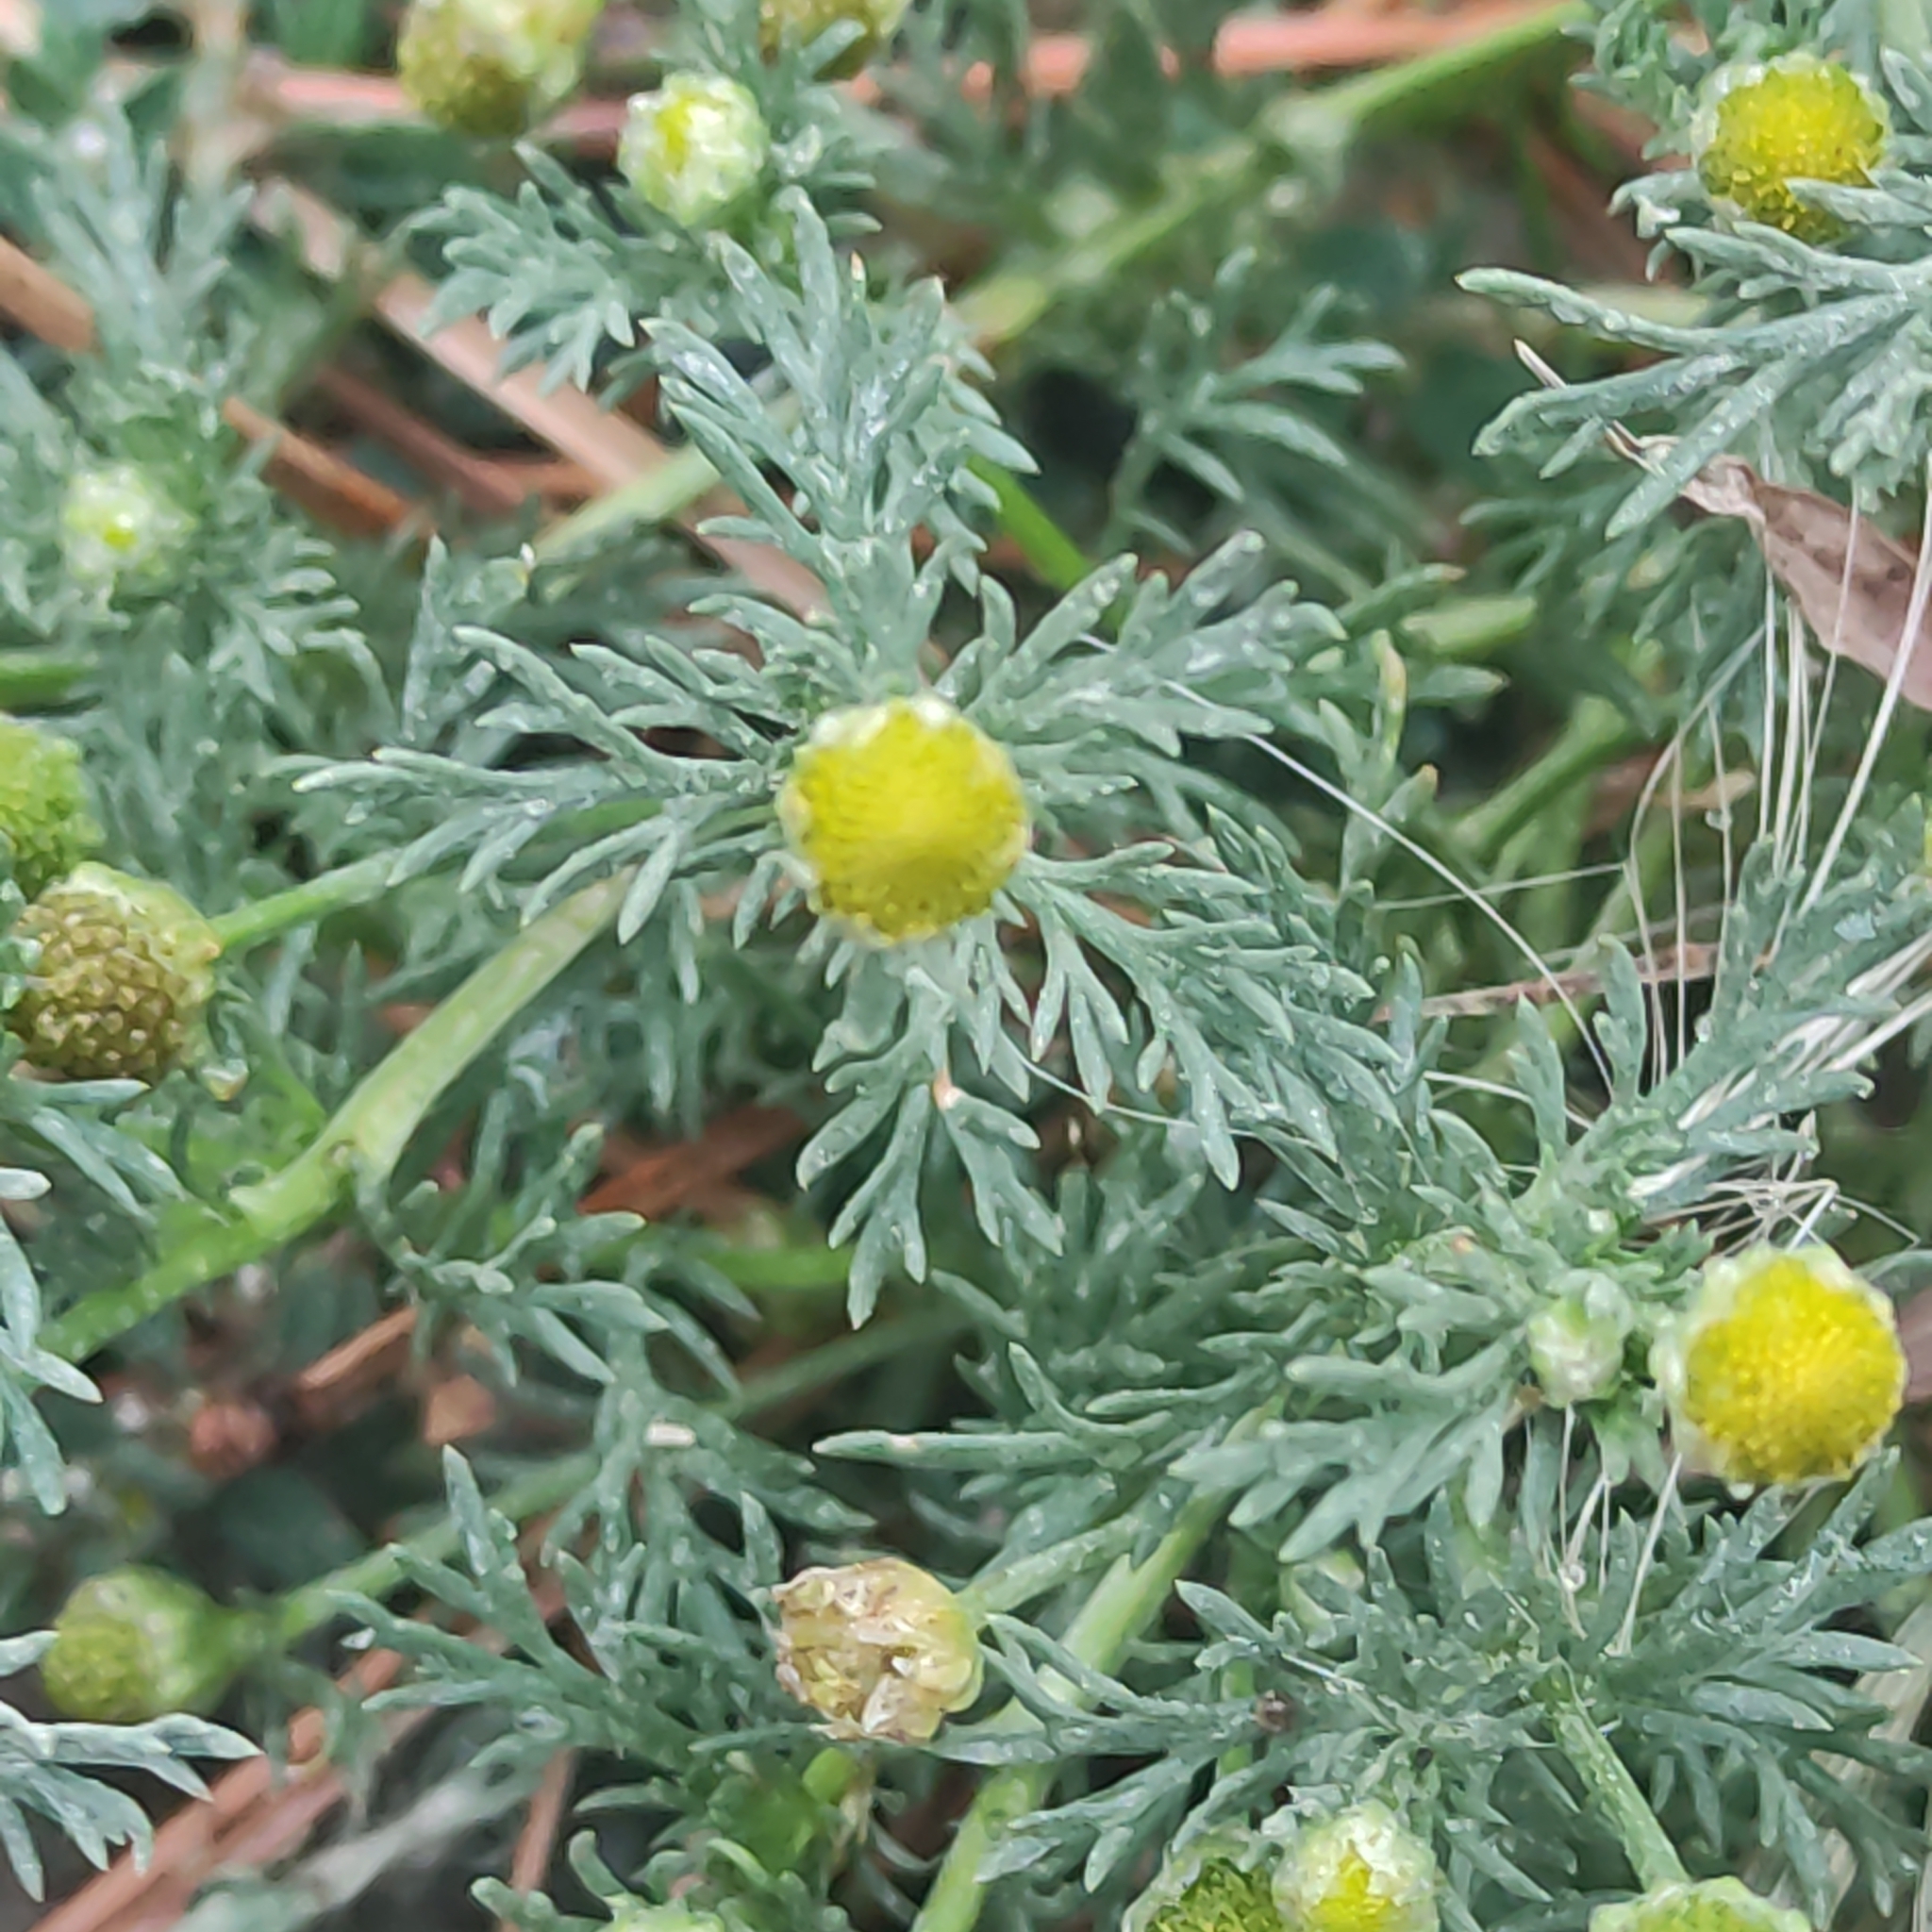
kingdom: Plantae
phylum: Tracheophyta
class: Magnoliopsida
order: Asterales
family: Asteraceae
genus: Matricaria
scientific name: Matricaria discoidea
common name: Disc mayweed
